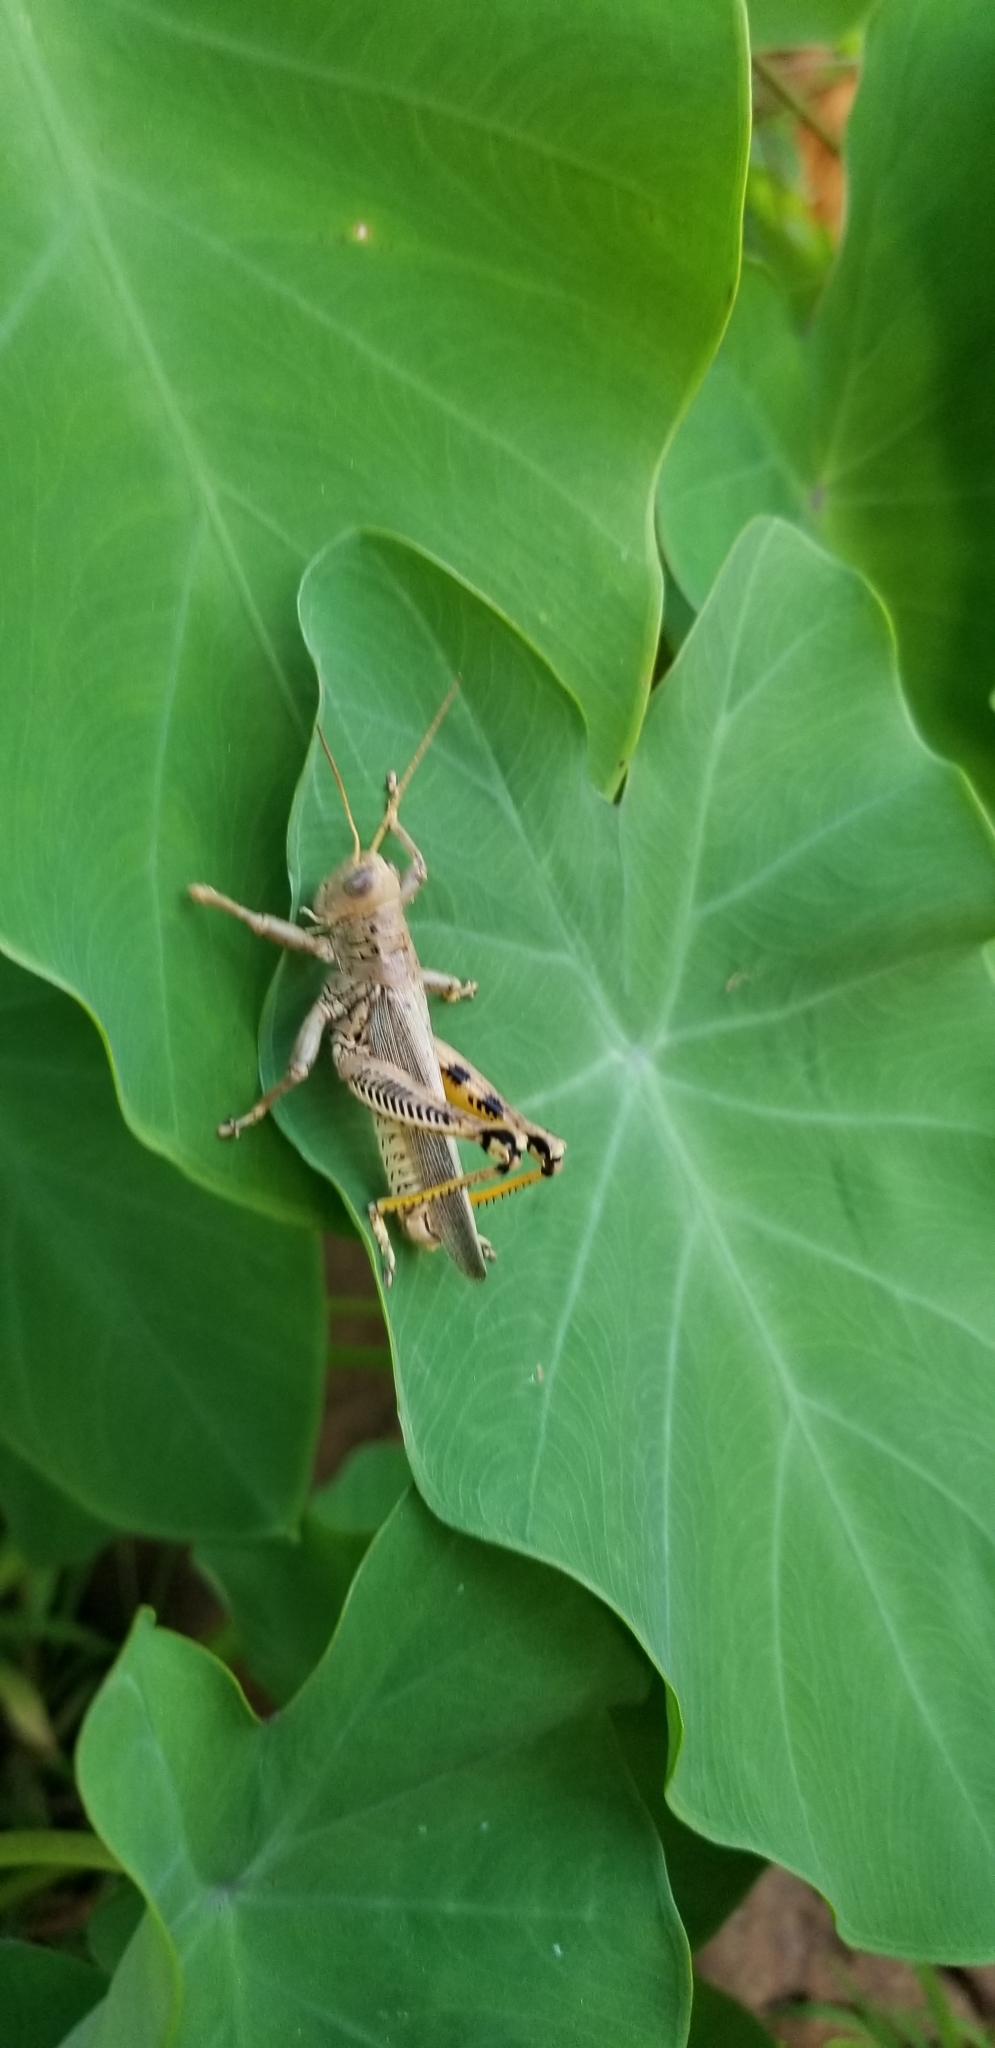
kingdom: Animalia
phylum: Arthropoda
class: Insecta
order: Orthoptera
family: Acrididae
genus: Melanoplus
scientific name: Melanoplus differentialis
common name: Differential grasshopper
